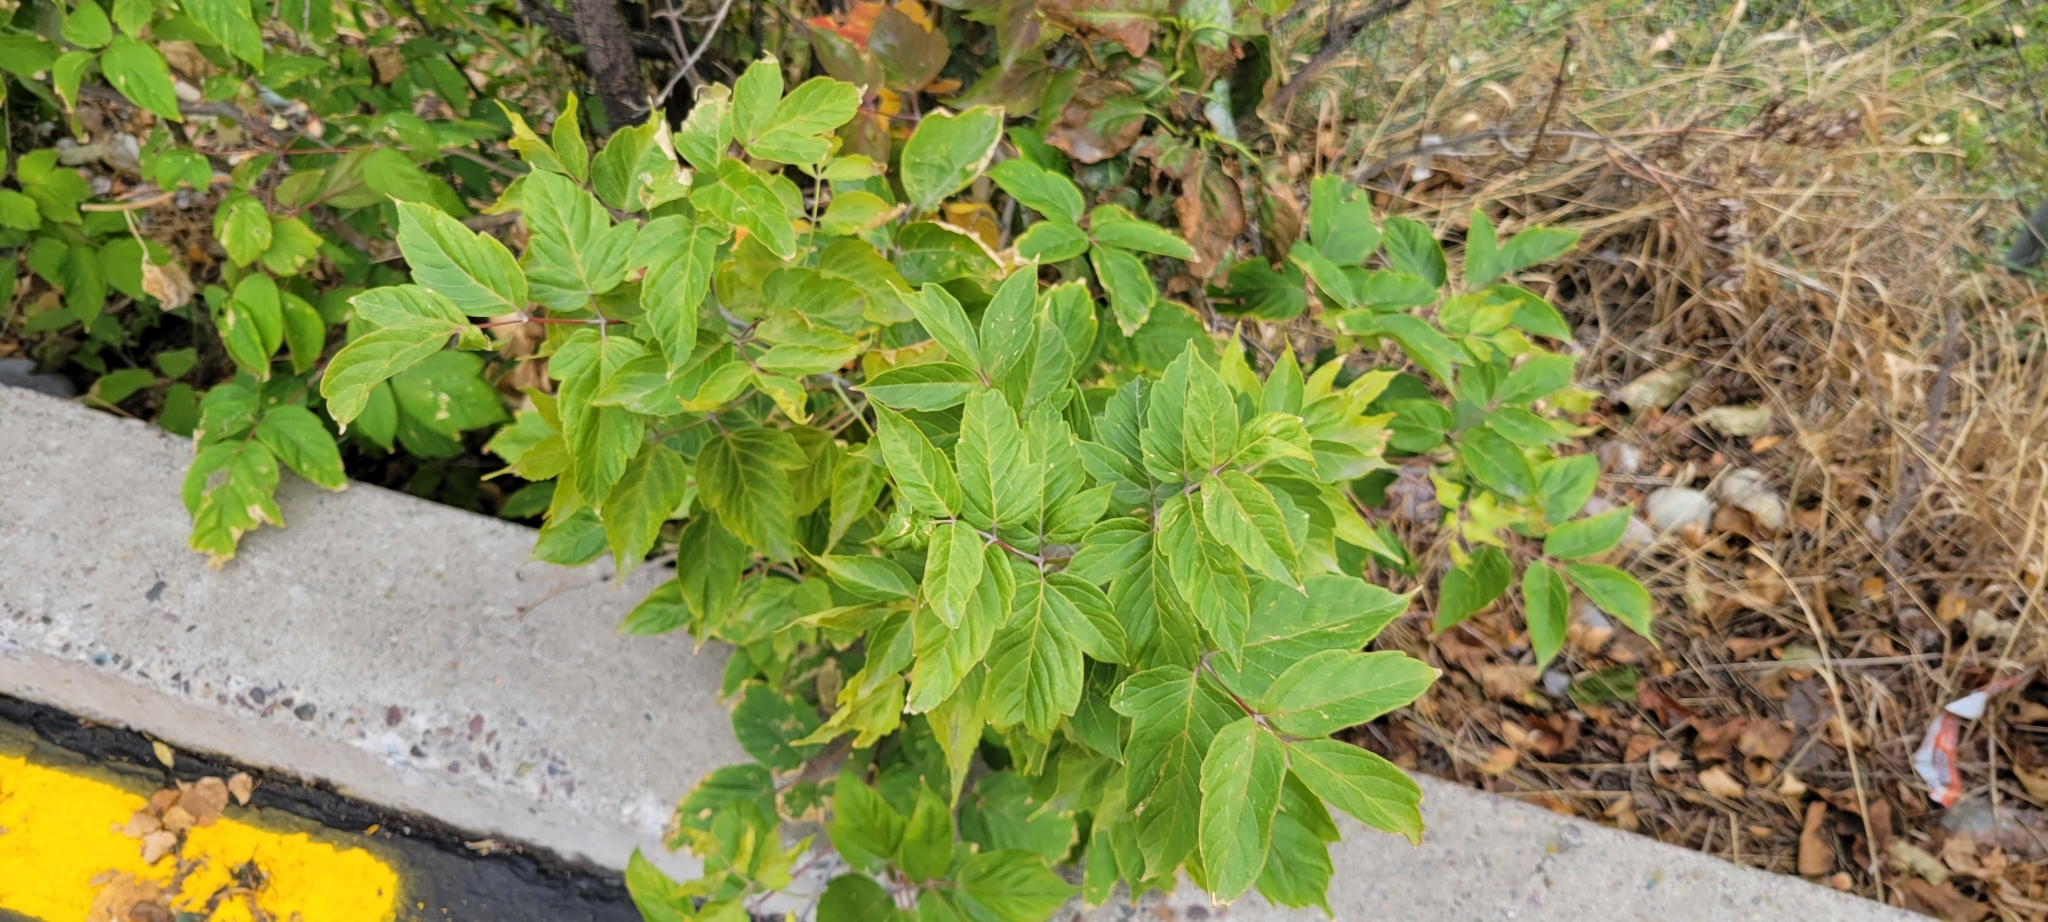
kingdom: Plantae
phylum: Tracheophyta
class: Magnoliopsida
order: Sapindales
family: Sapindaceae
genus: Acer
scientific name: Acer negundo
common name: Ashleaf maple
